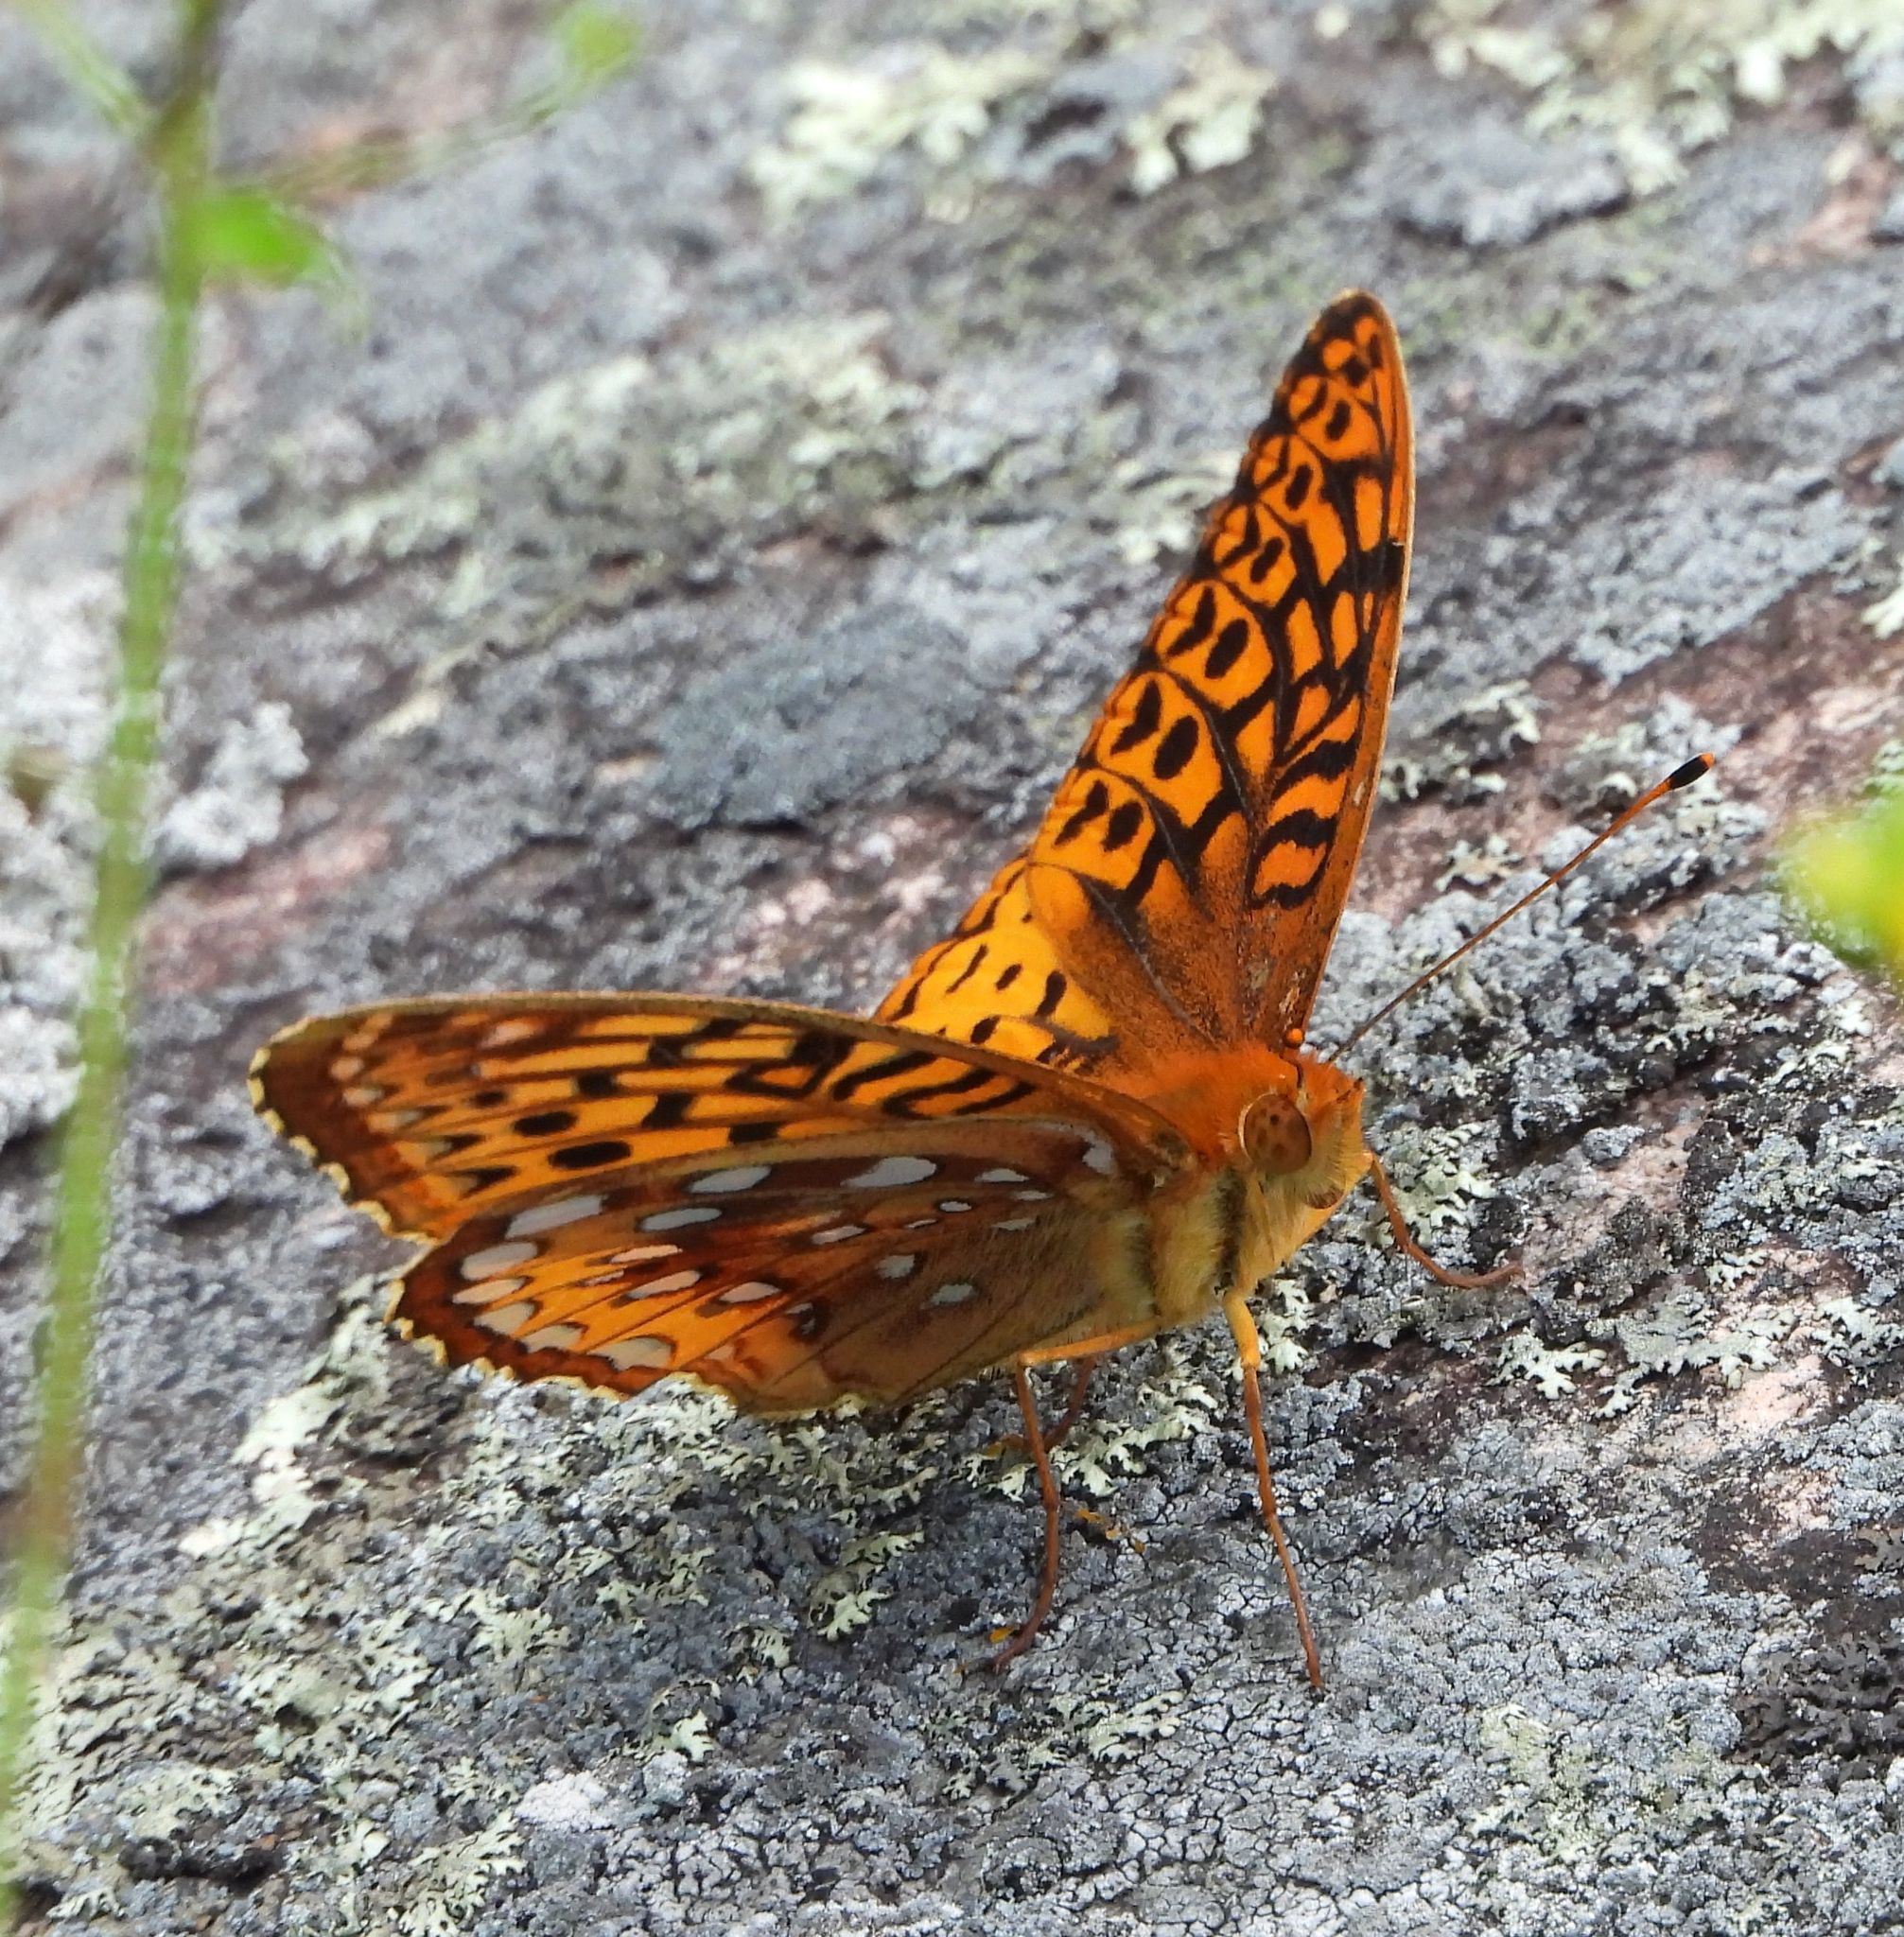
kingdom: Animalia
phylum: Arthropoda
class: Insecta
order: Lepidoptera
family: Nymphalidae
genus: Speyeria
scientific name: Speyeria cybele
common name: Great spangled fritillary
